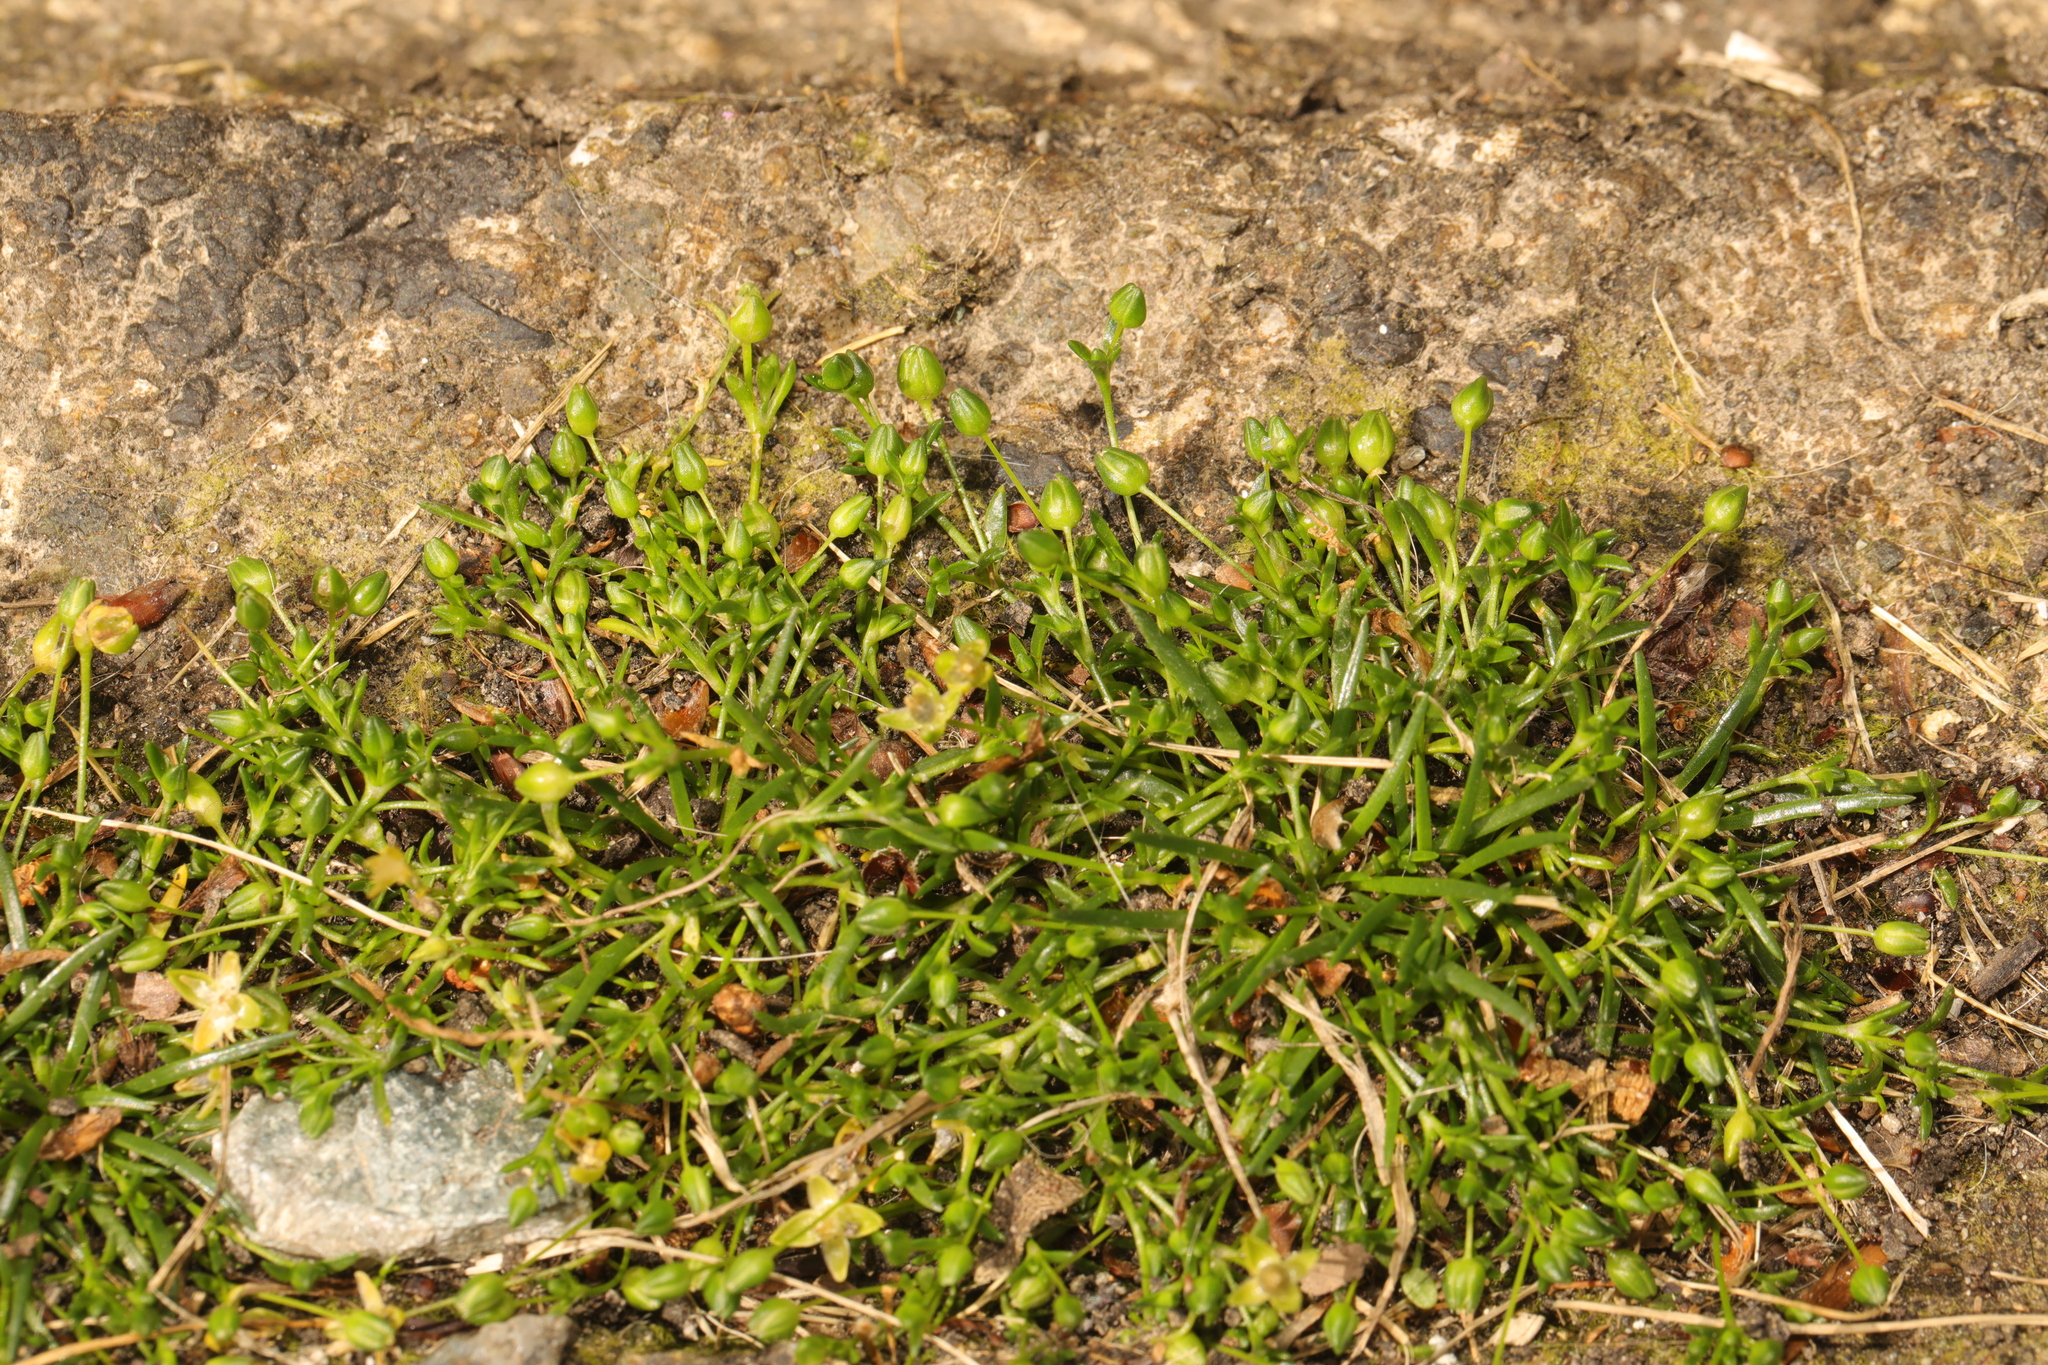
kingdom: Plantae
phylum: Tracheophyta
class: Magnoliopsida
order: Caryophyllales
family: Caryophyllaceae
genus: Sagina
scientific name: Sagina procumbens
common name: Procumbent pearlwort
